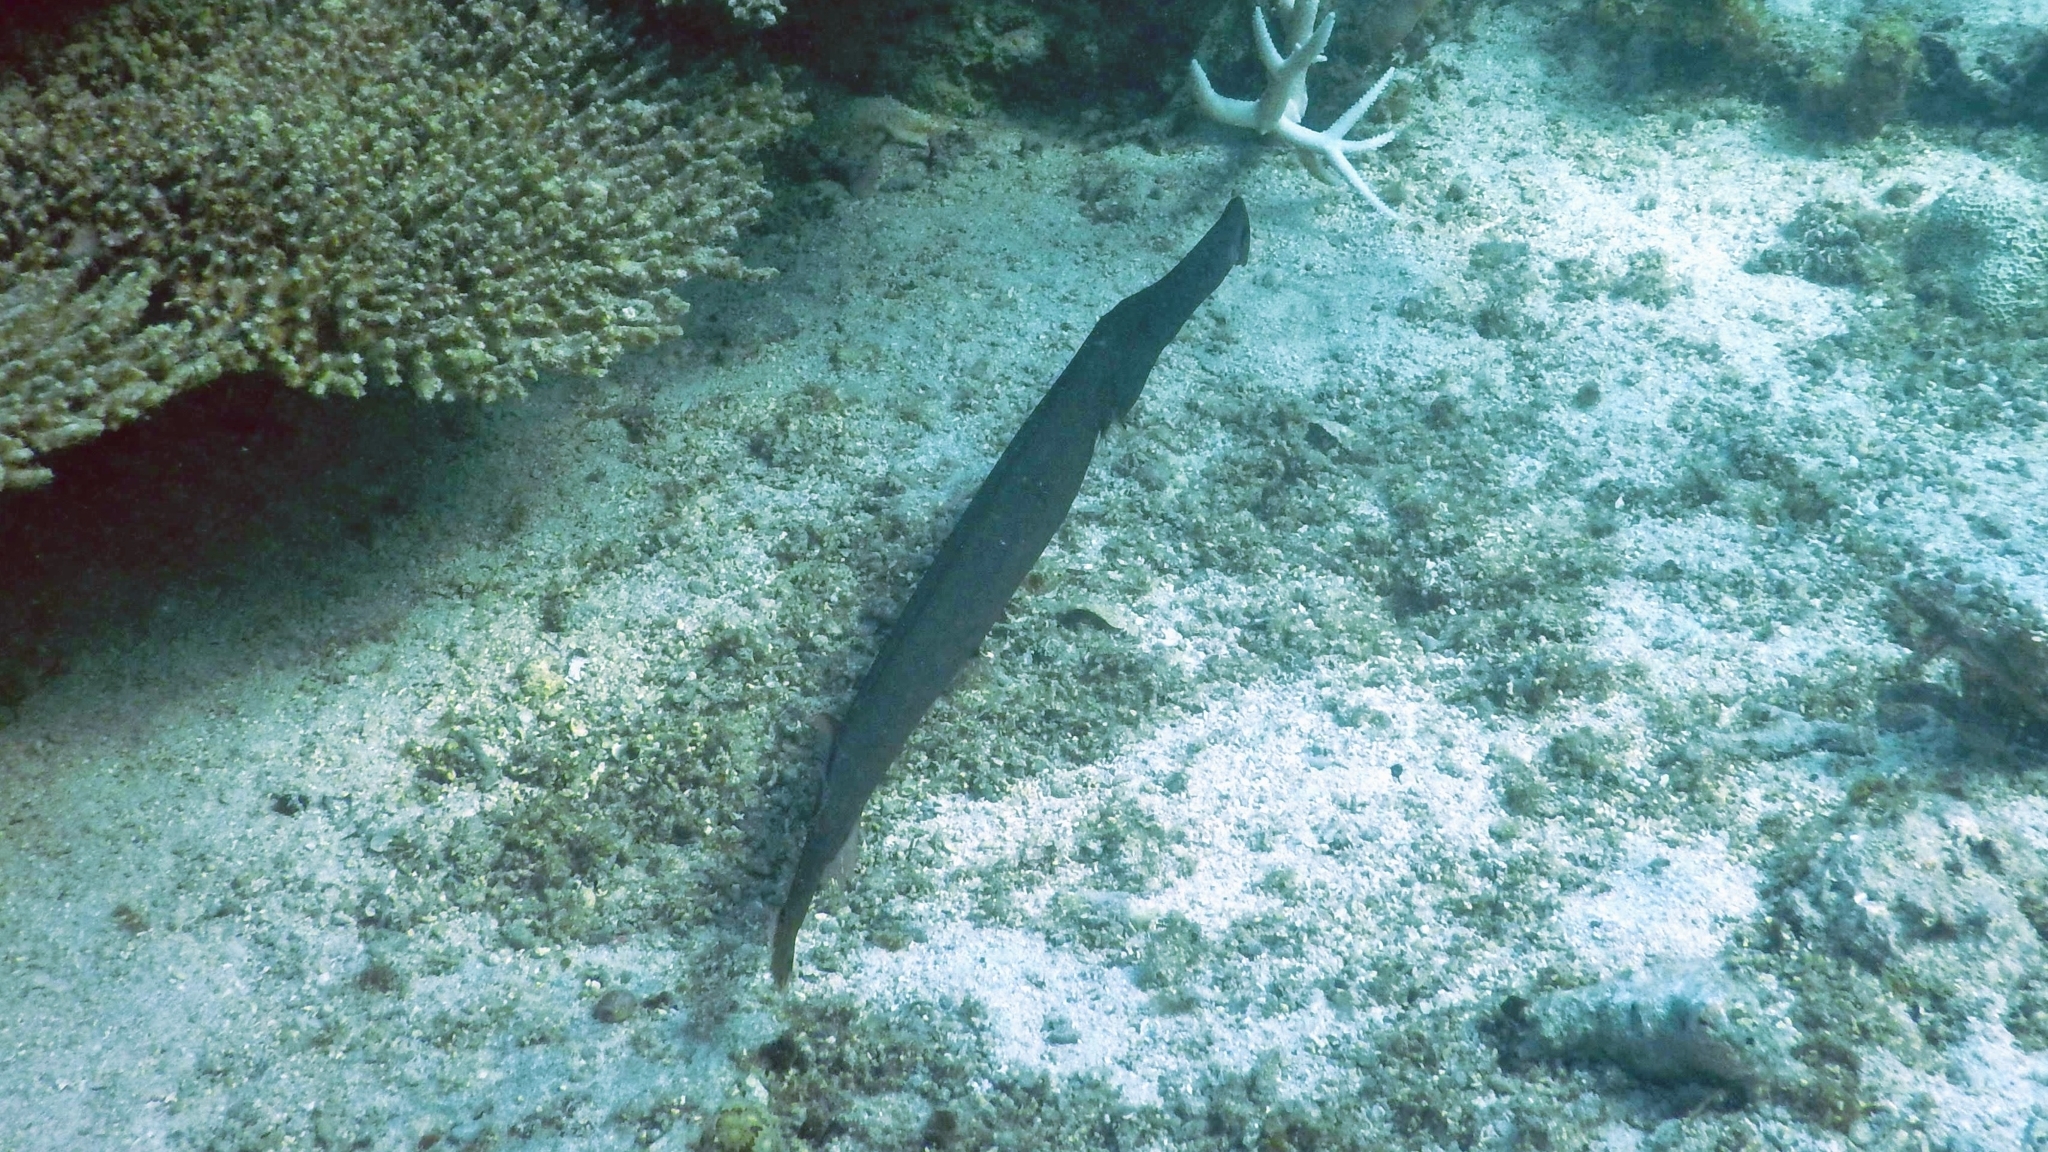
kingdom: Animalia
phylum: Chordata
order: Syngnathiformes
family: Aulostomidae
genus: Aulostomus
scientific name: Aulostomus chinensis
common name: Chinese trumpetfish
